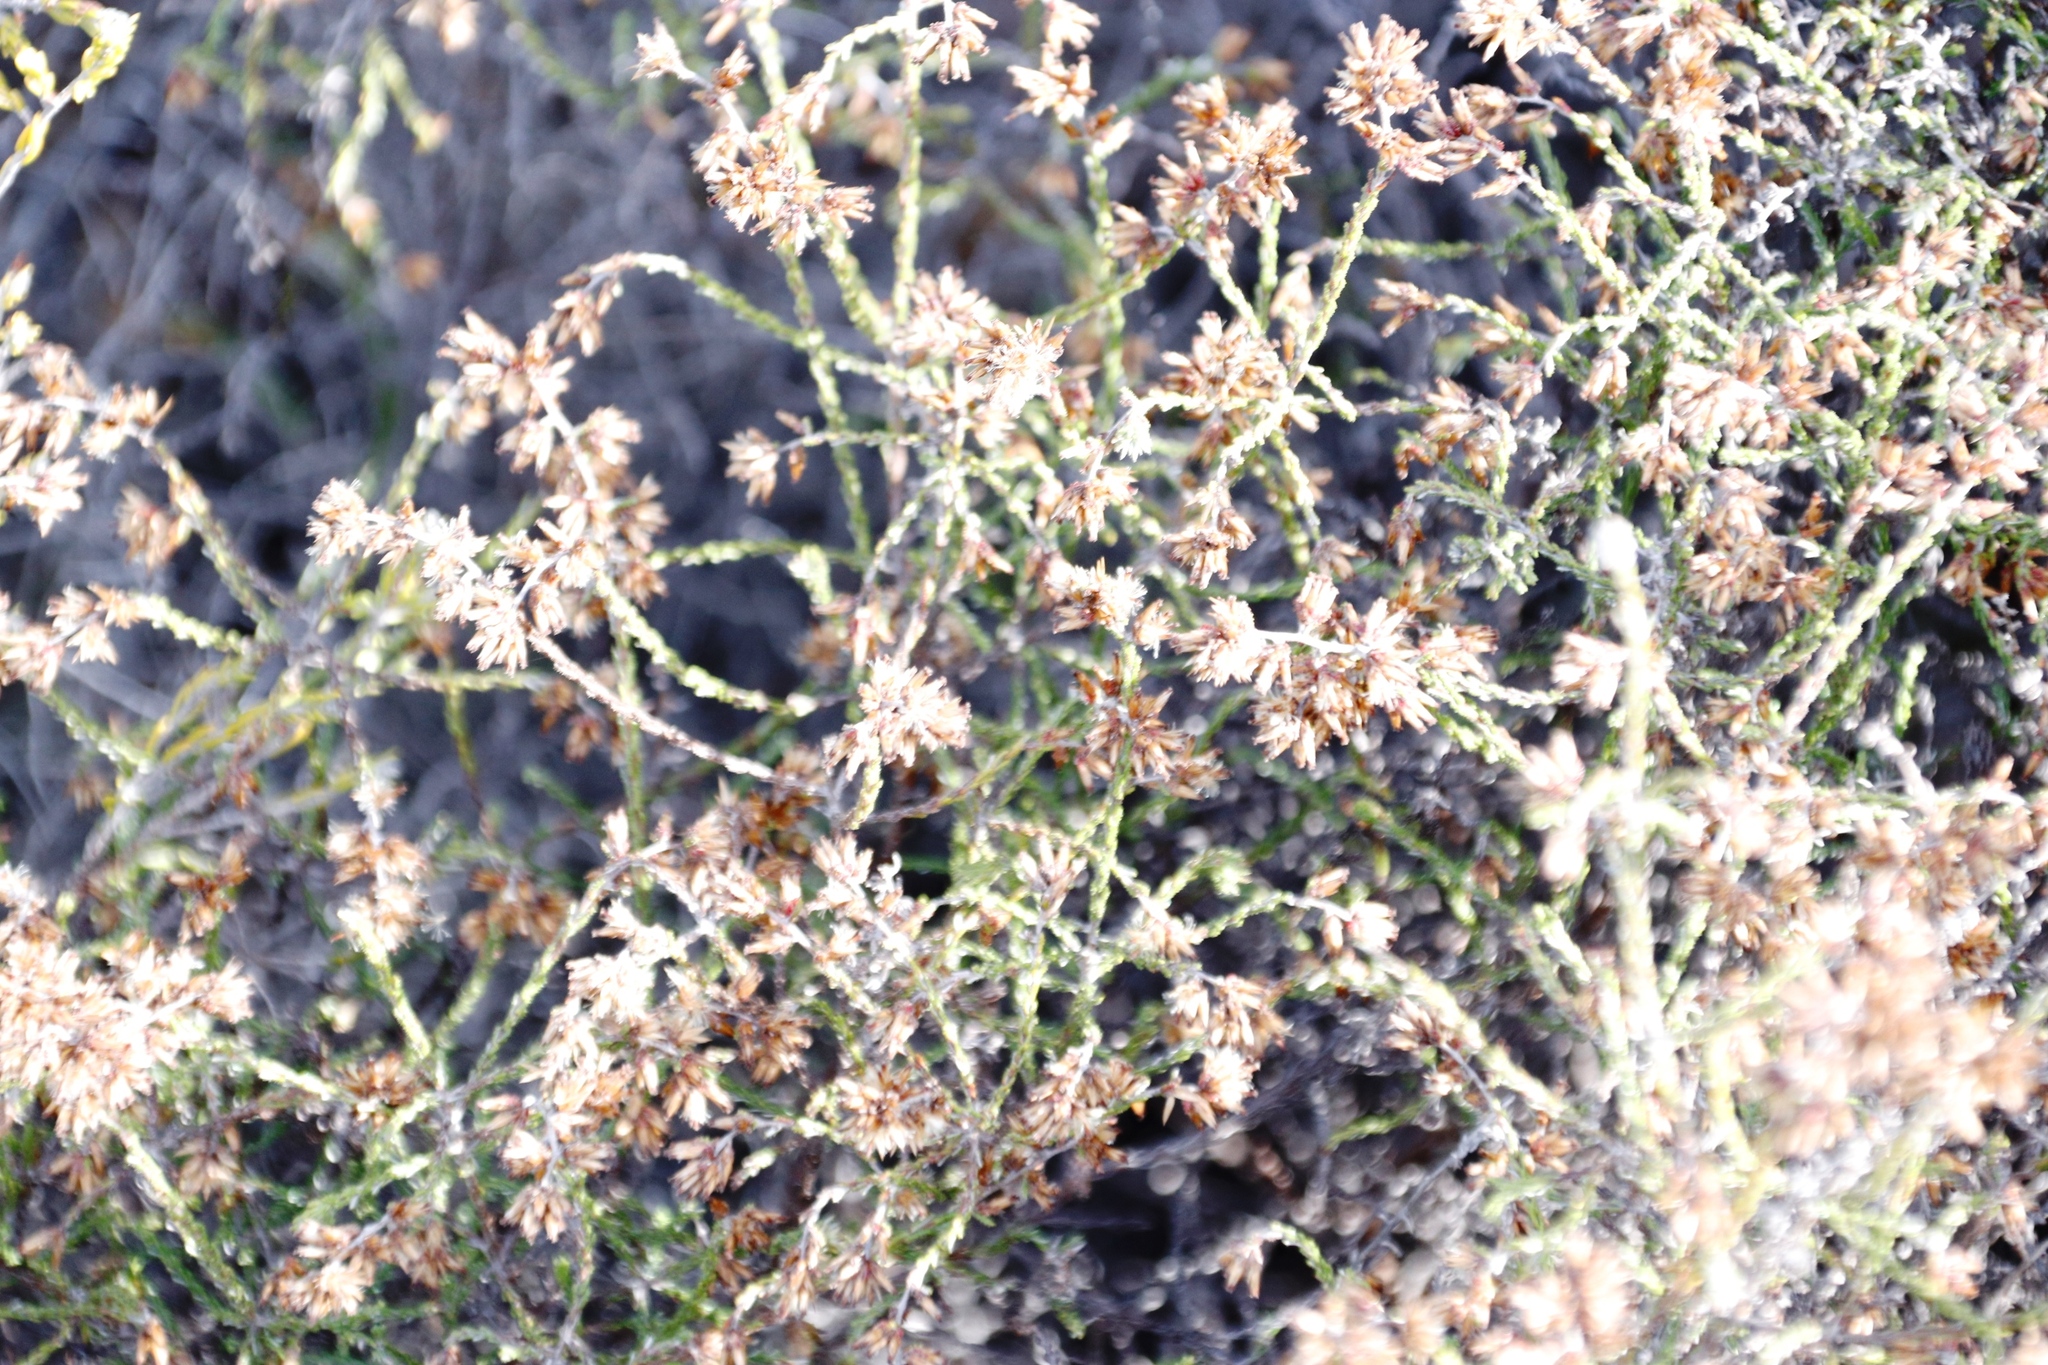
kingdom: Plantae
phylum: Tracheophyta
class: Magnoliopsida
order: Asterales
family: Asteraceae
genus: Myrovernix
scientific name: Myrovernix scaber
